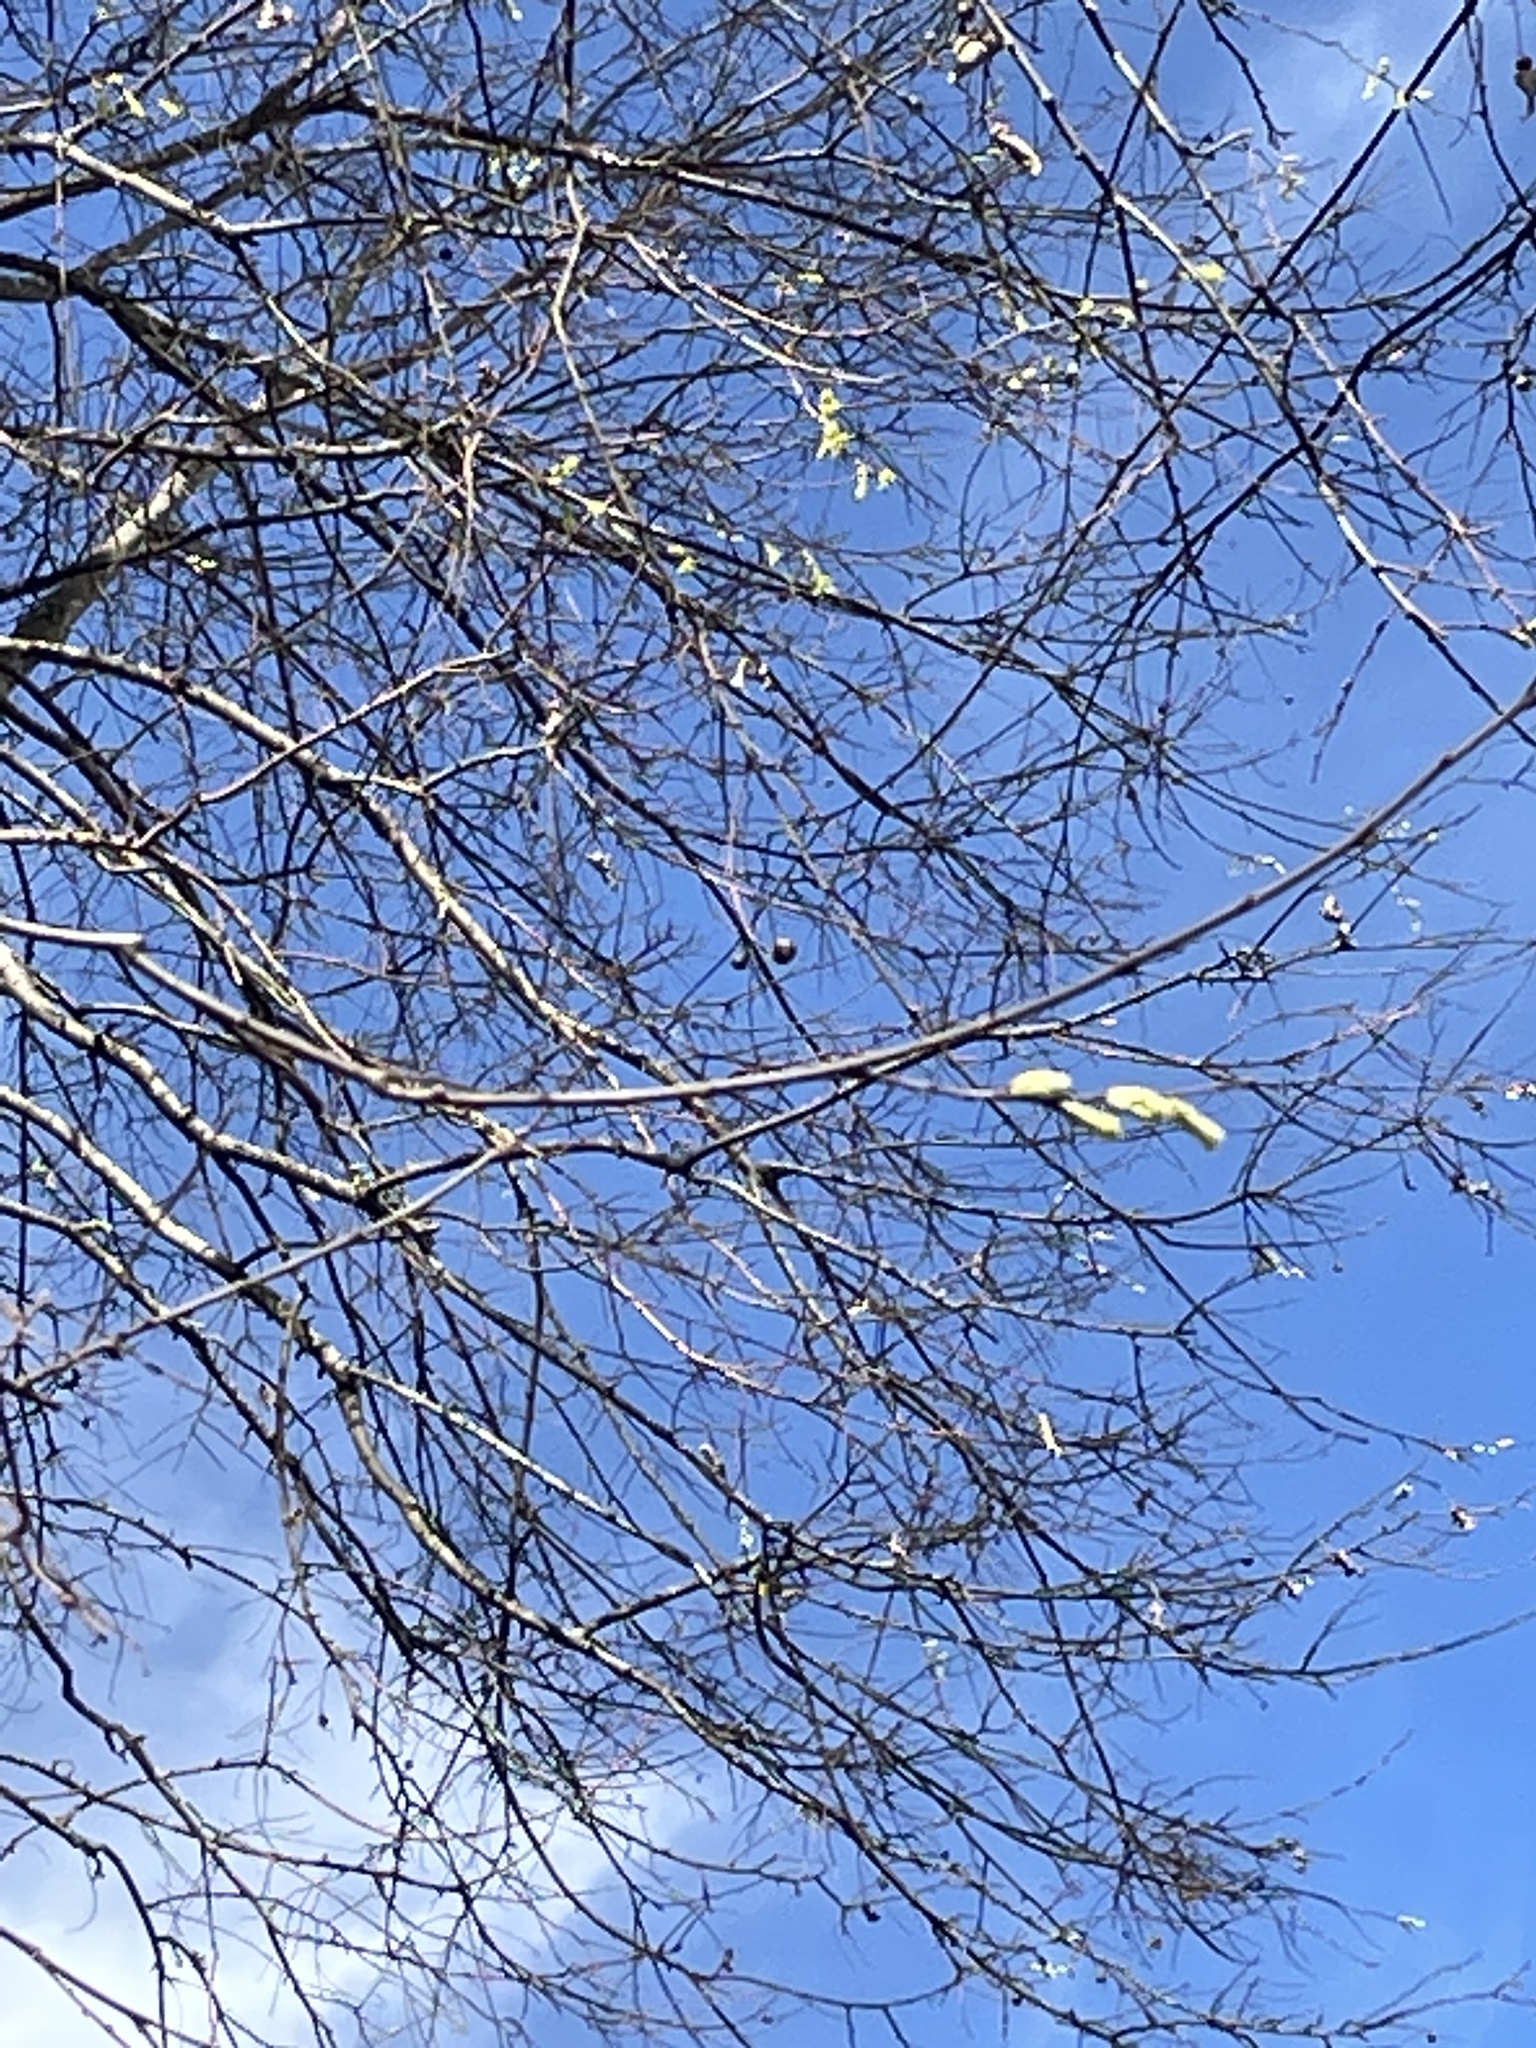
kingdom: Plantae
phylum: Tracheophyta
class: Magnoliopsida
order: Rosales
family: Cannabaceae
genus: Celtis
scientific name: Celtis laevigata
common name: Sugarberry
